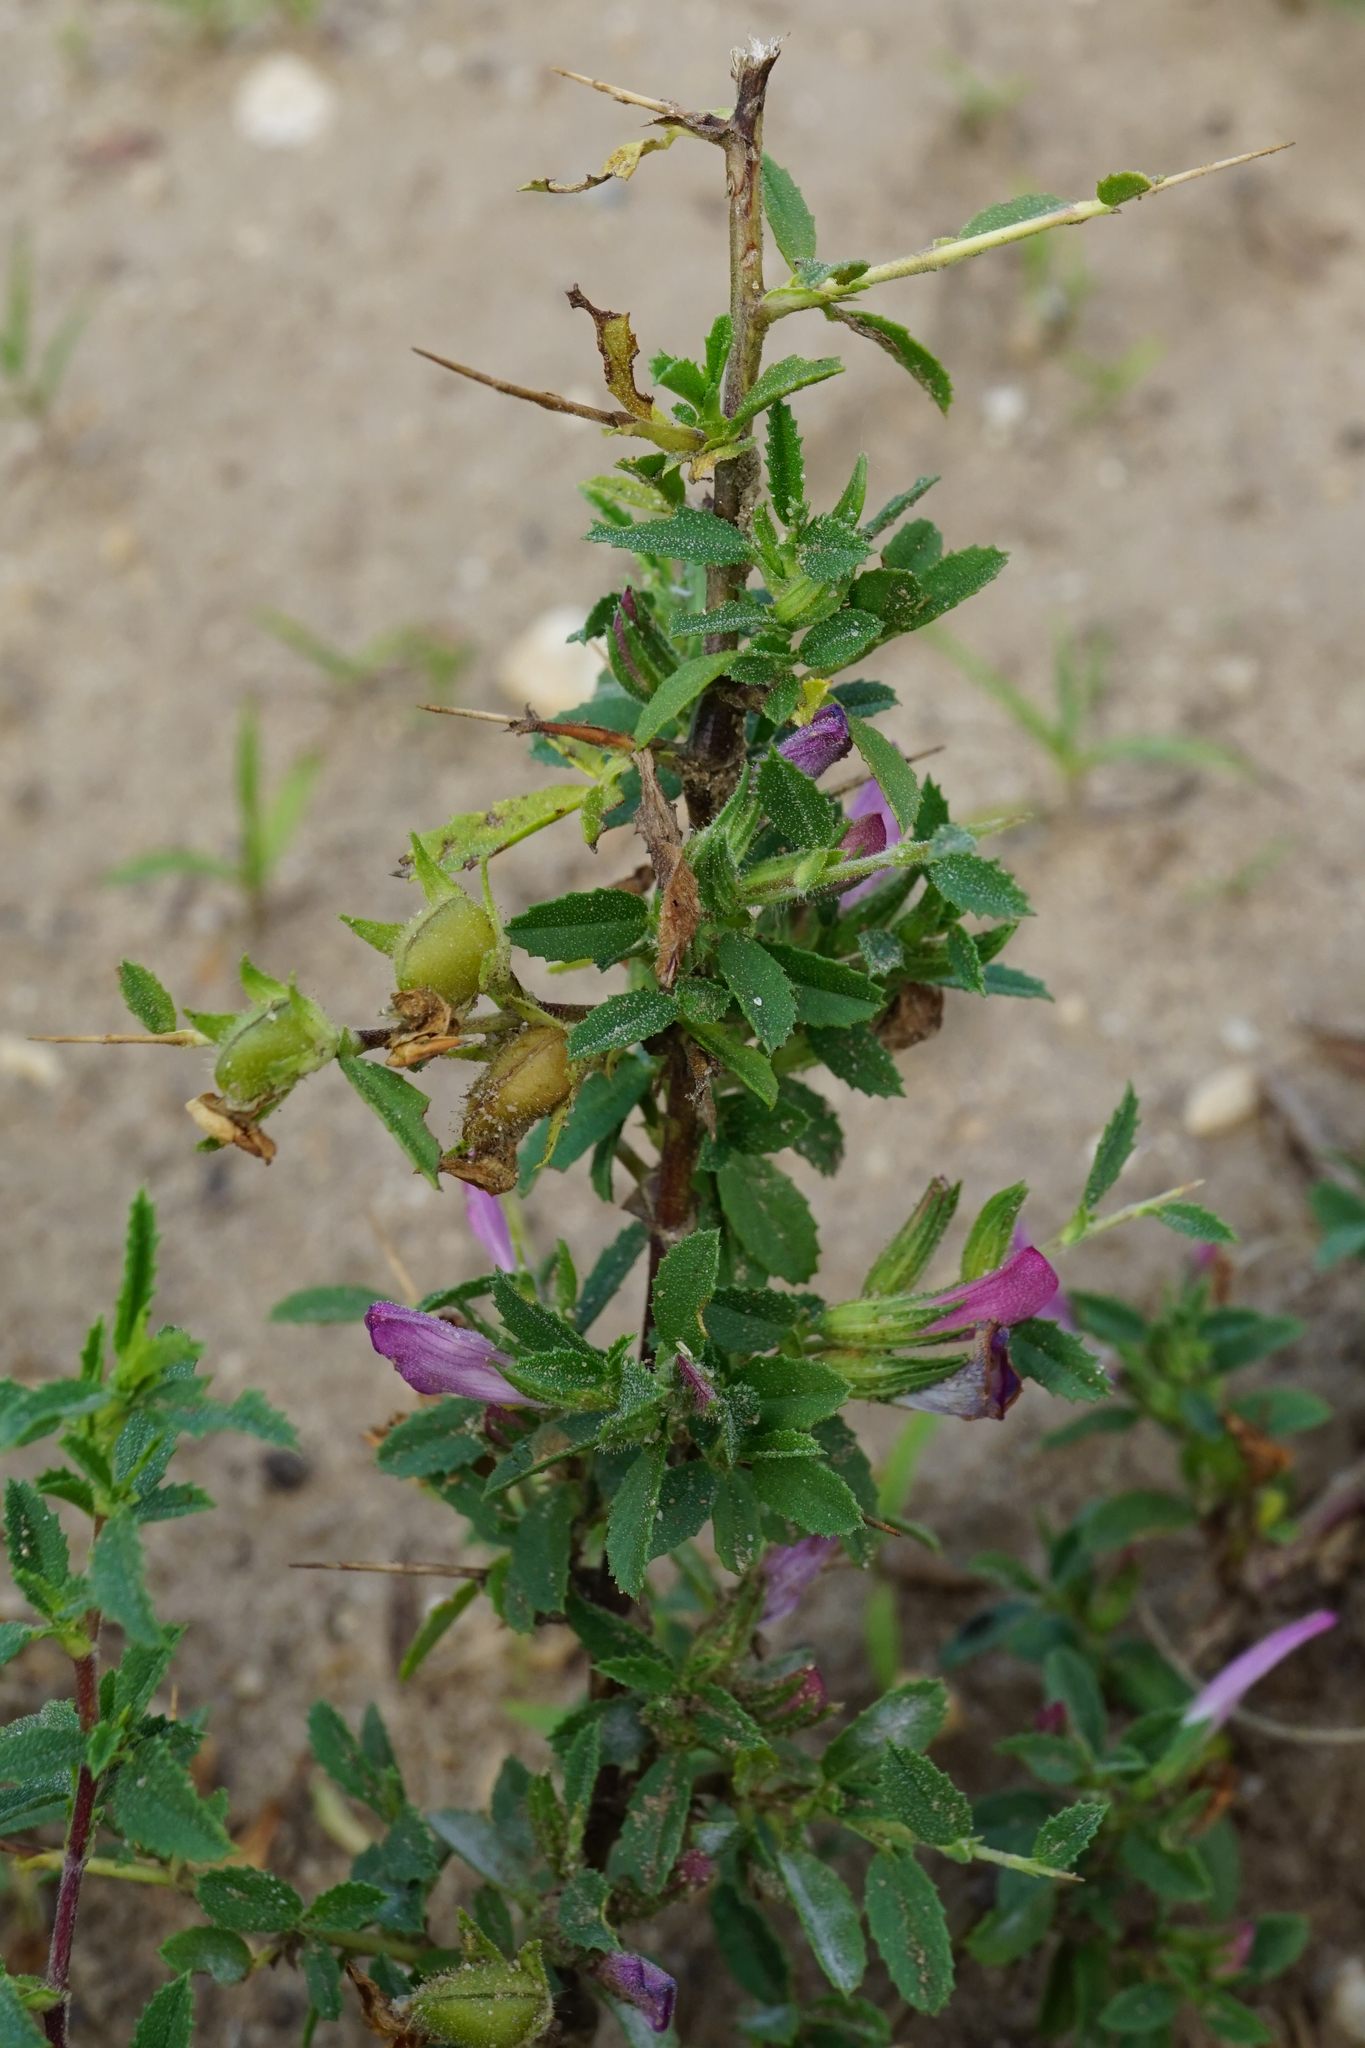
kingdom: Plantae
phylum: Tracheophyta
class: Magnoliopsida
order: Fabales
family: Fabaceae
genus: Ononis
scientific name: Ononis spinosa
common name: Spiny restharrow
